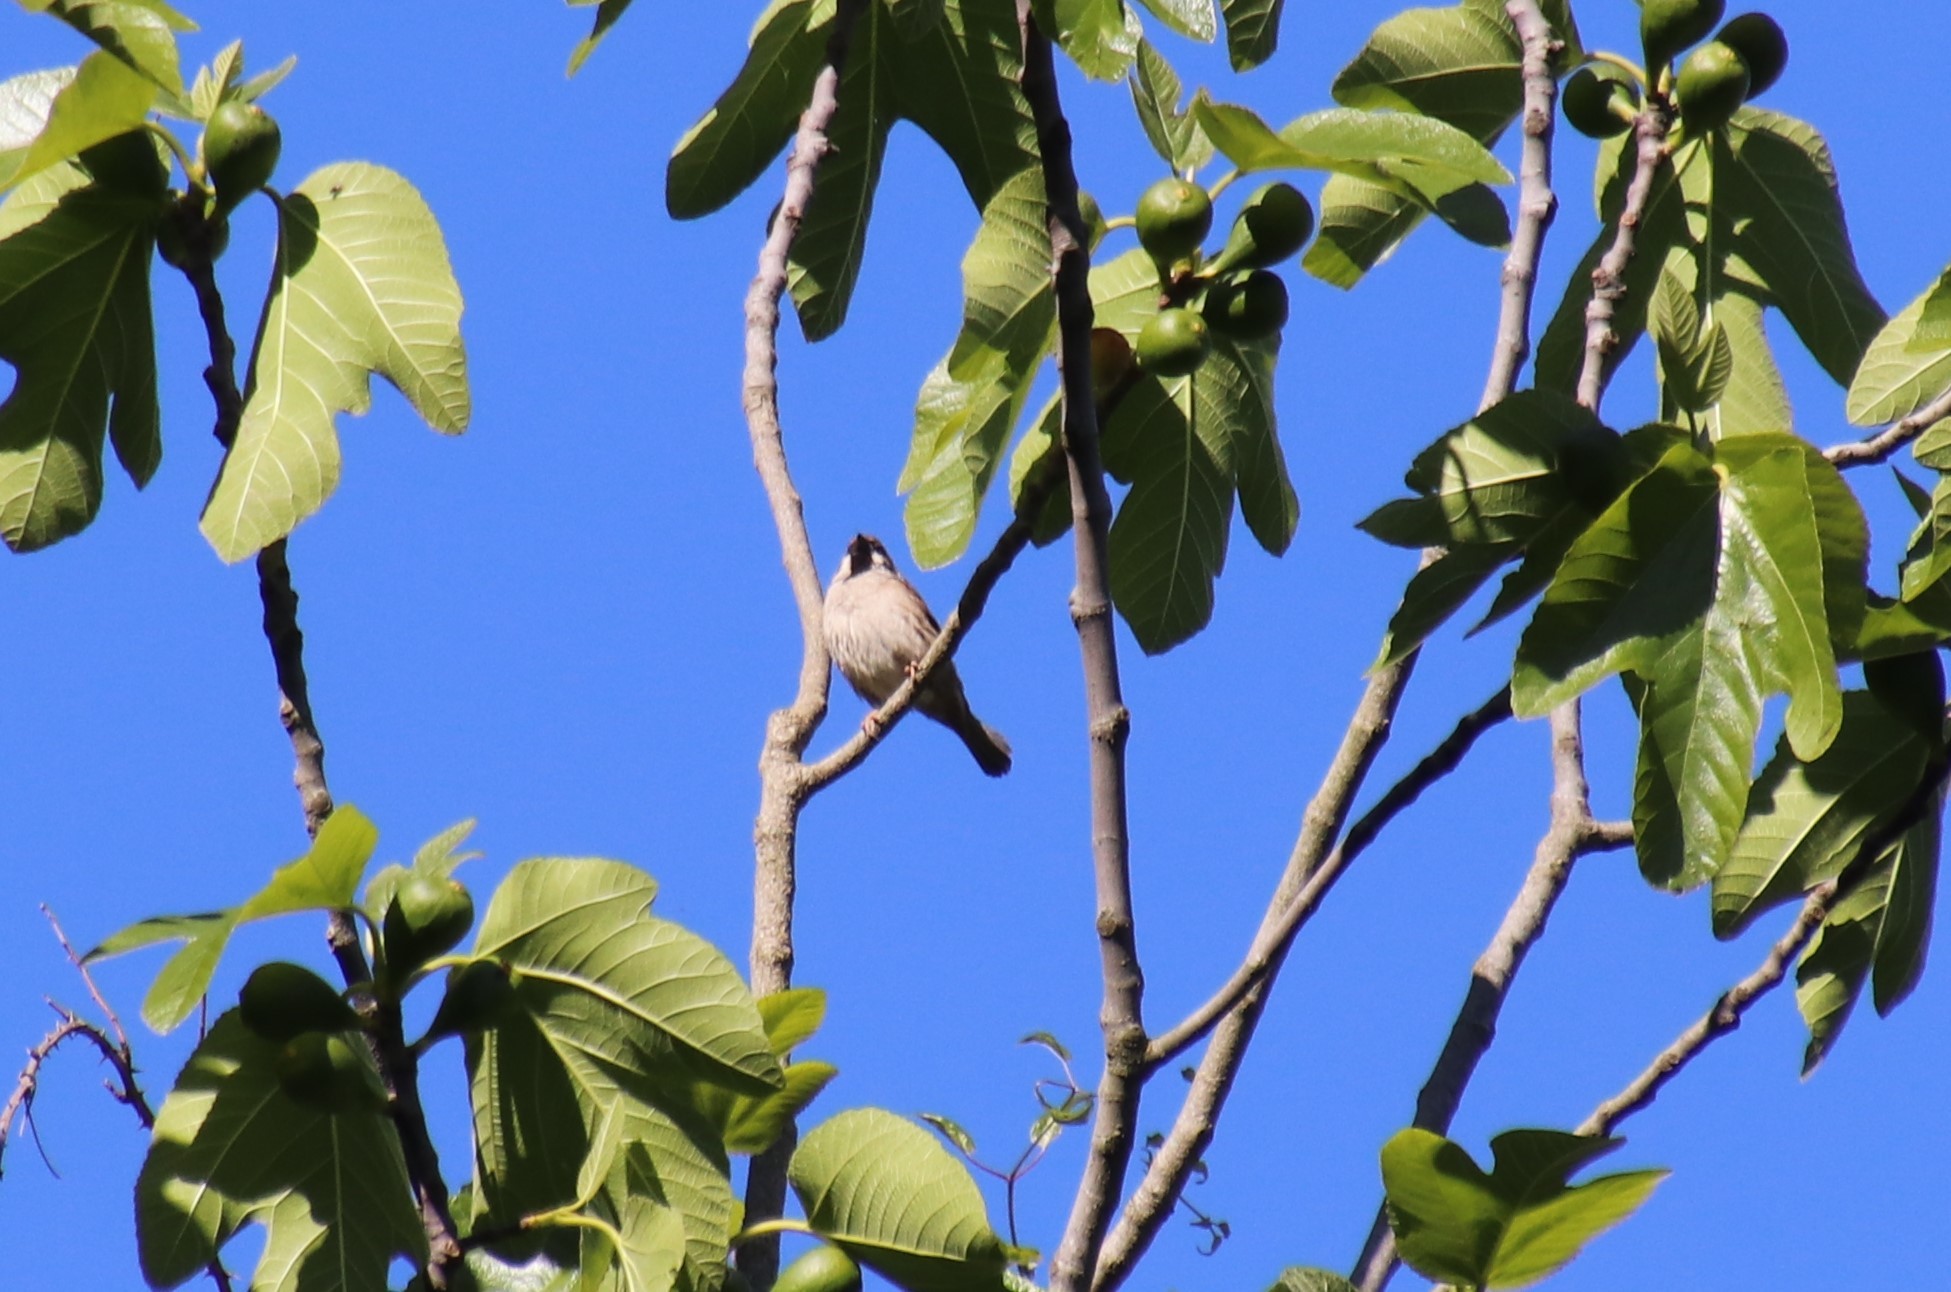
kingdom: Animalia
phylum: Chordata
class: Aves
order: Passeriformes
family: Passeridae
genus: Passer
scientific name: Passer montanus
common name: Eurasian tree sparrow
